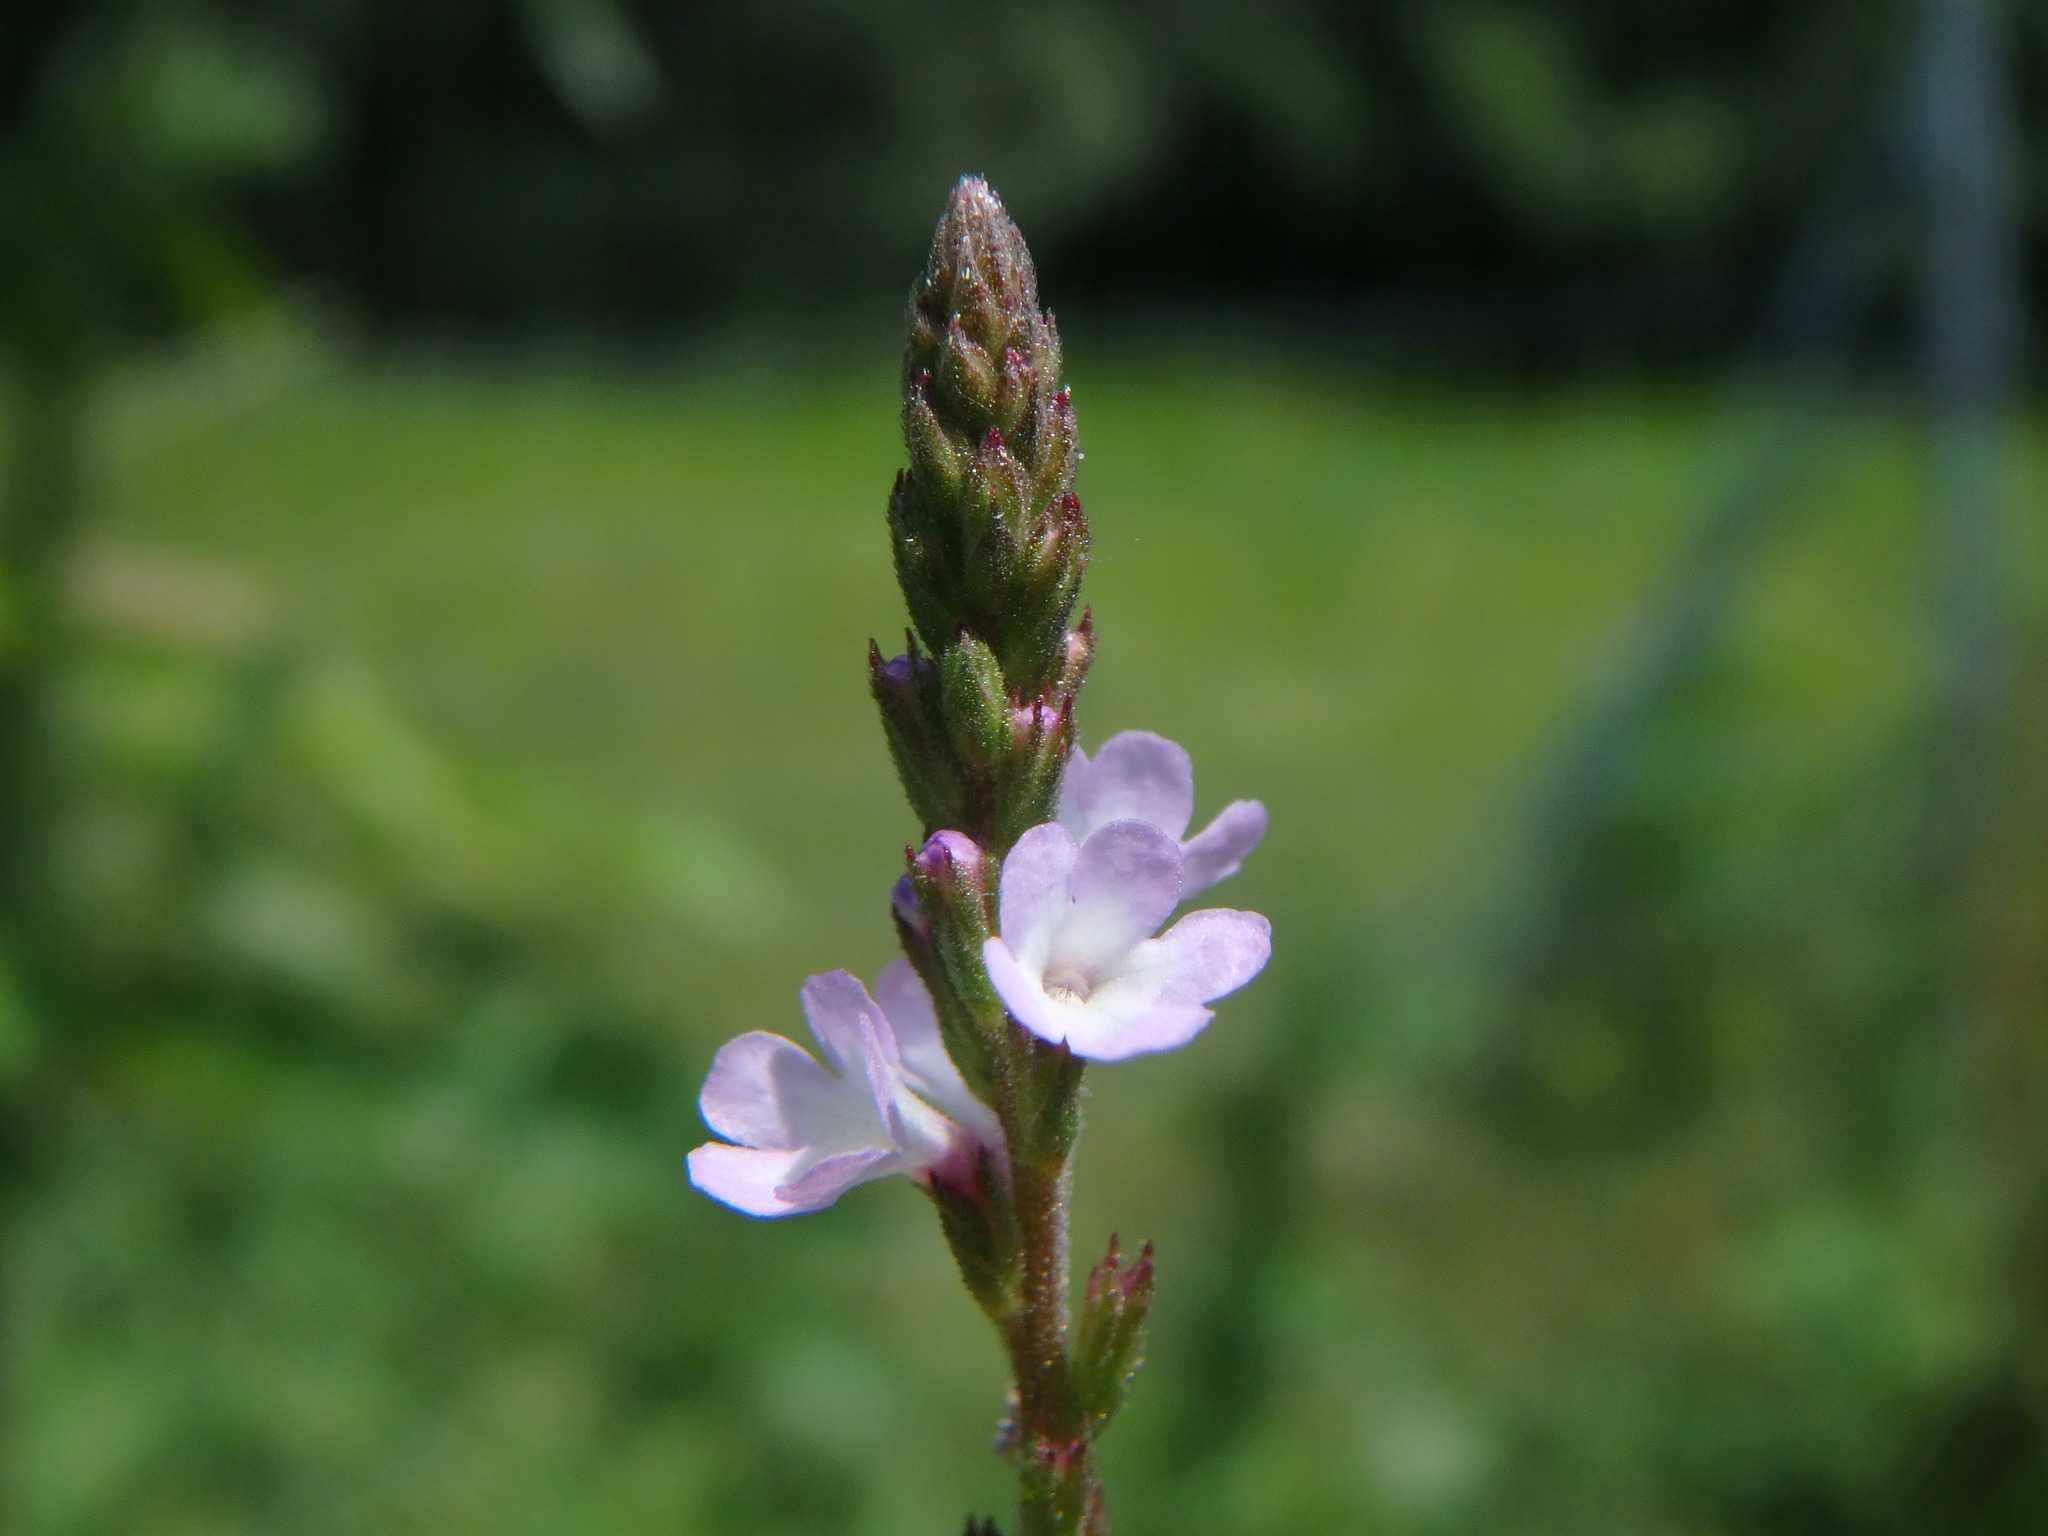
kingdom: Plantae
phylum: Tracheophyta
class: Magnoliopsida
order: Lamiales
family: Verbenaceae
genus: Verbena
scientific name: Verbena officinalis
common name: Vervain
